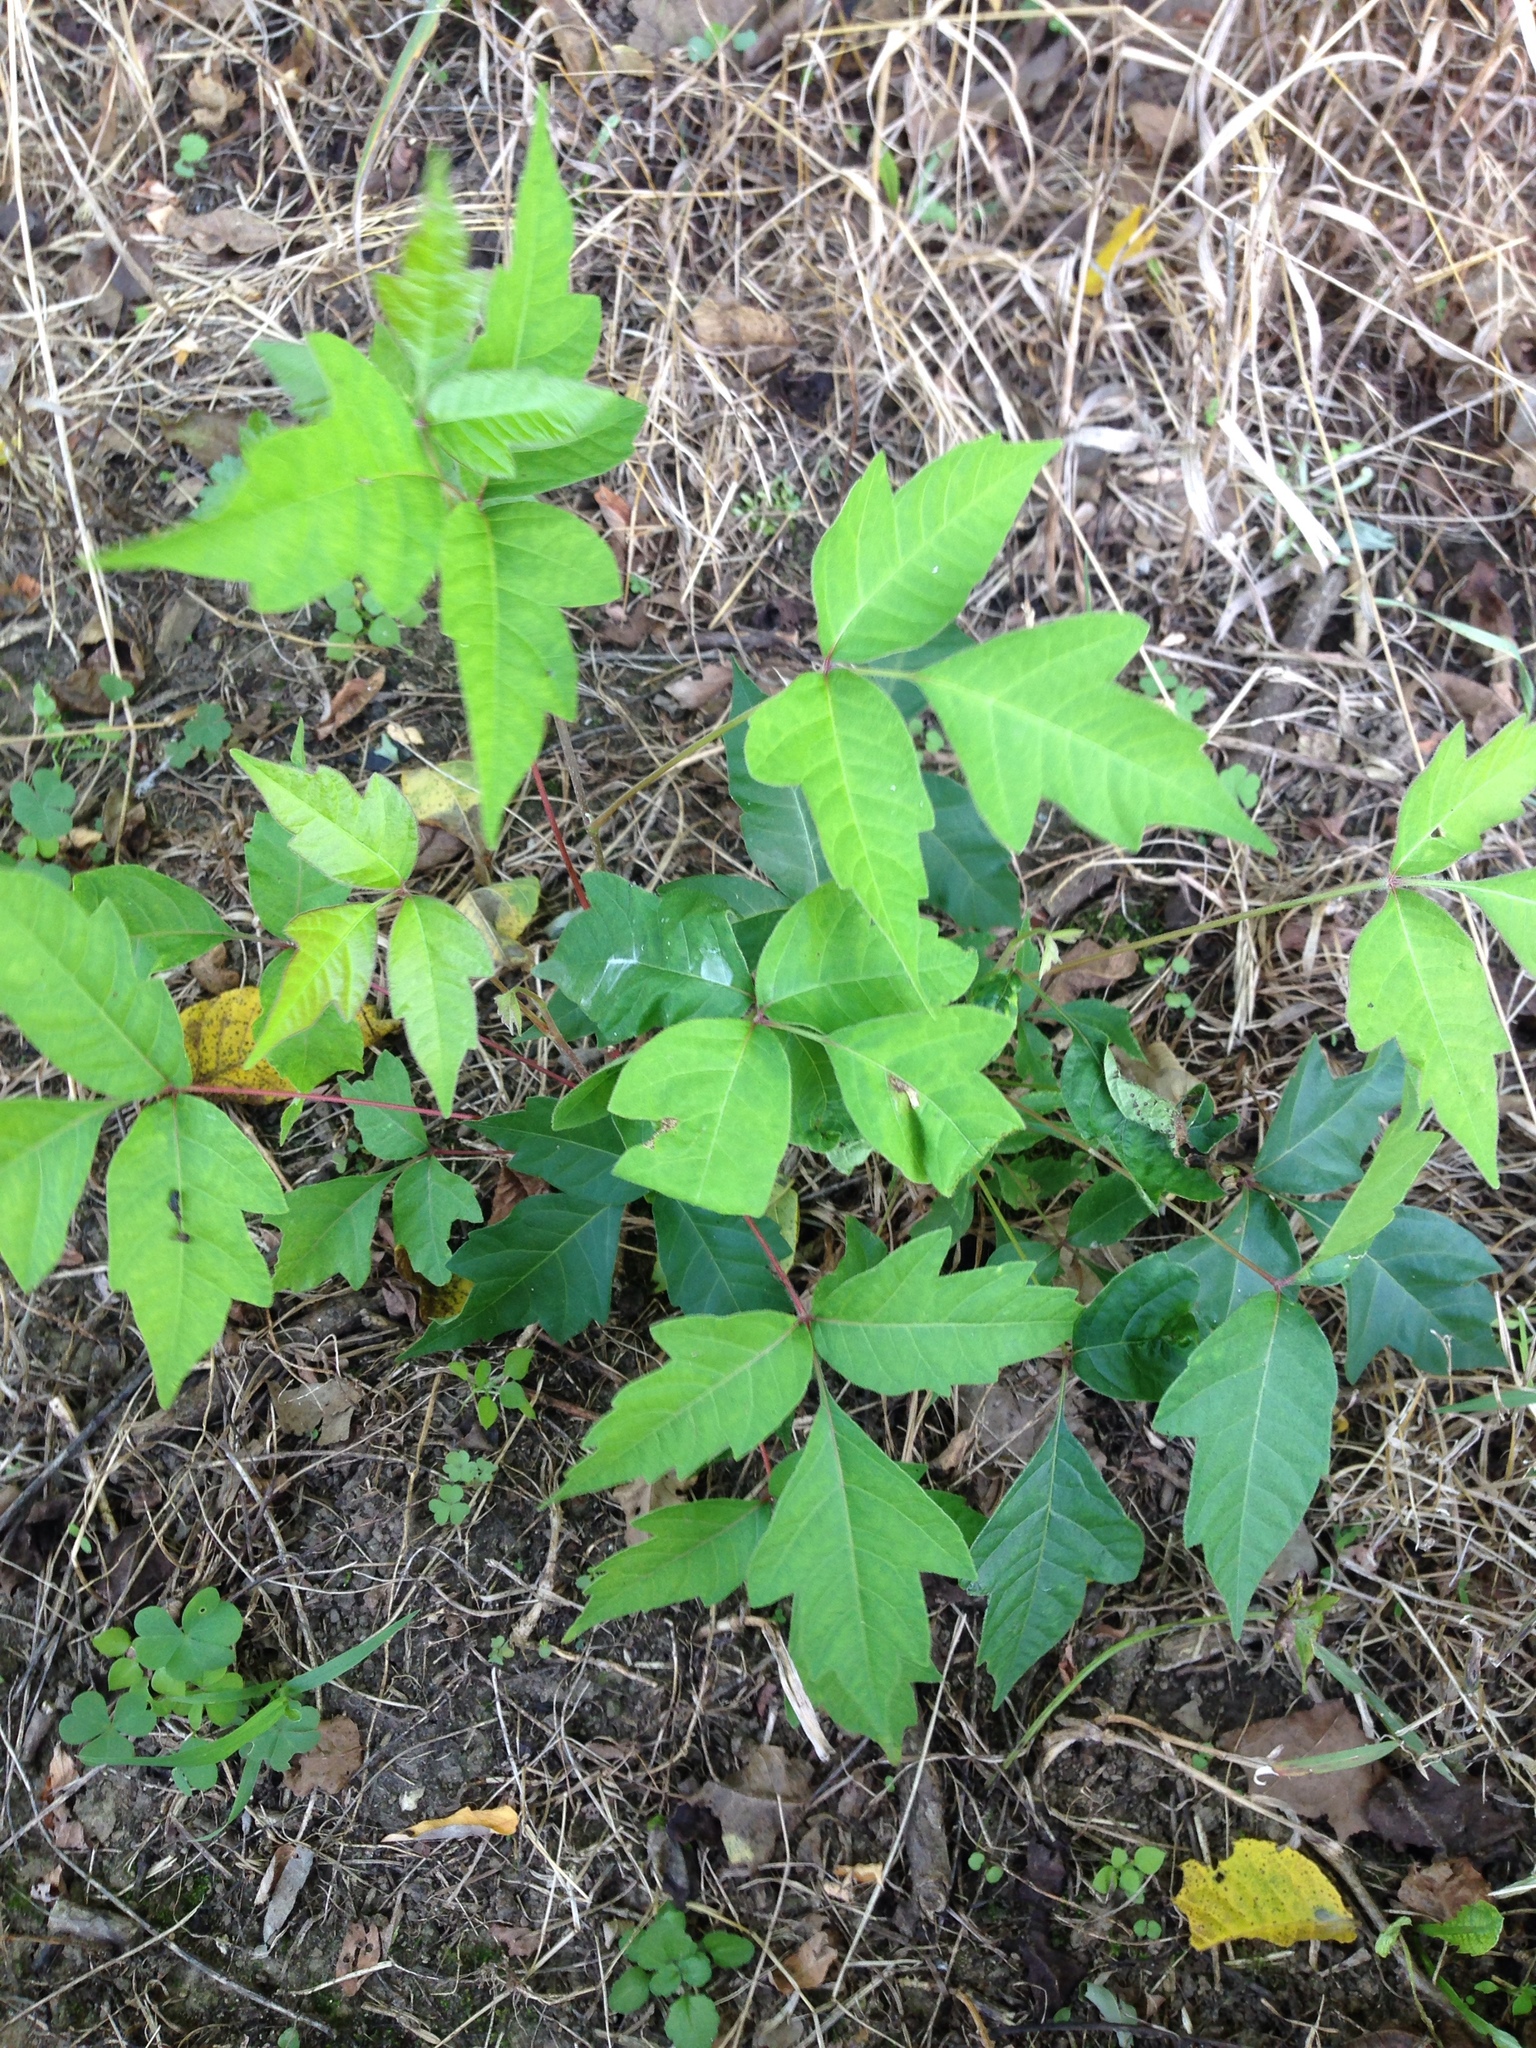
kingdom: Plantae
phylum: Tracheophyta
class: Magnoliopsida
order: Sapindales
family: Anacardiaceae
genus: Toxicodendron
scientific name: Toxicodendron radicans
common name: Poison ivy
